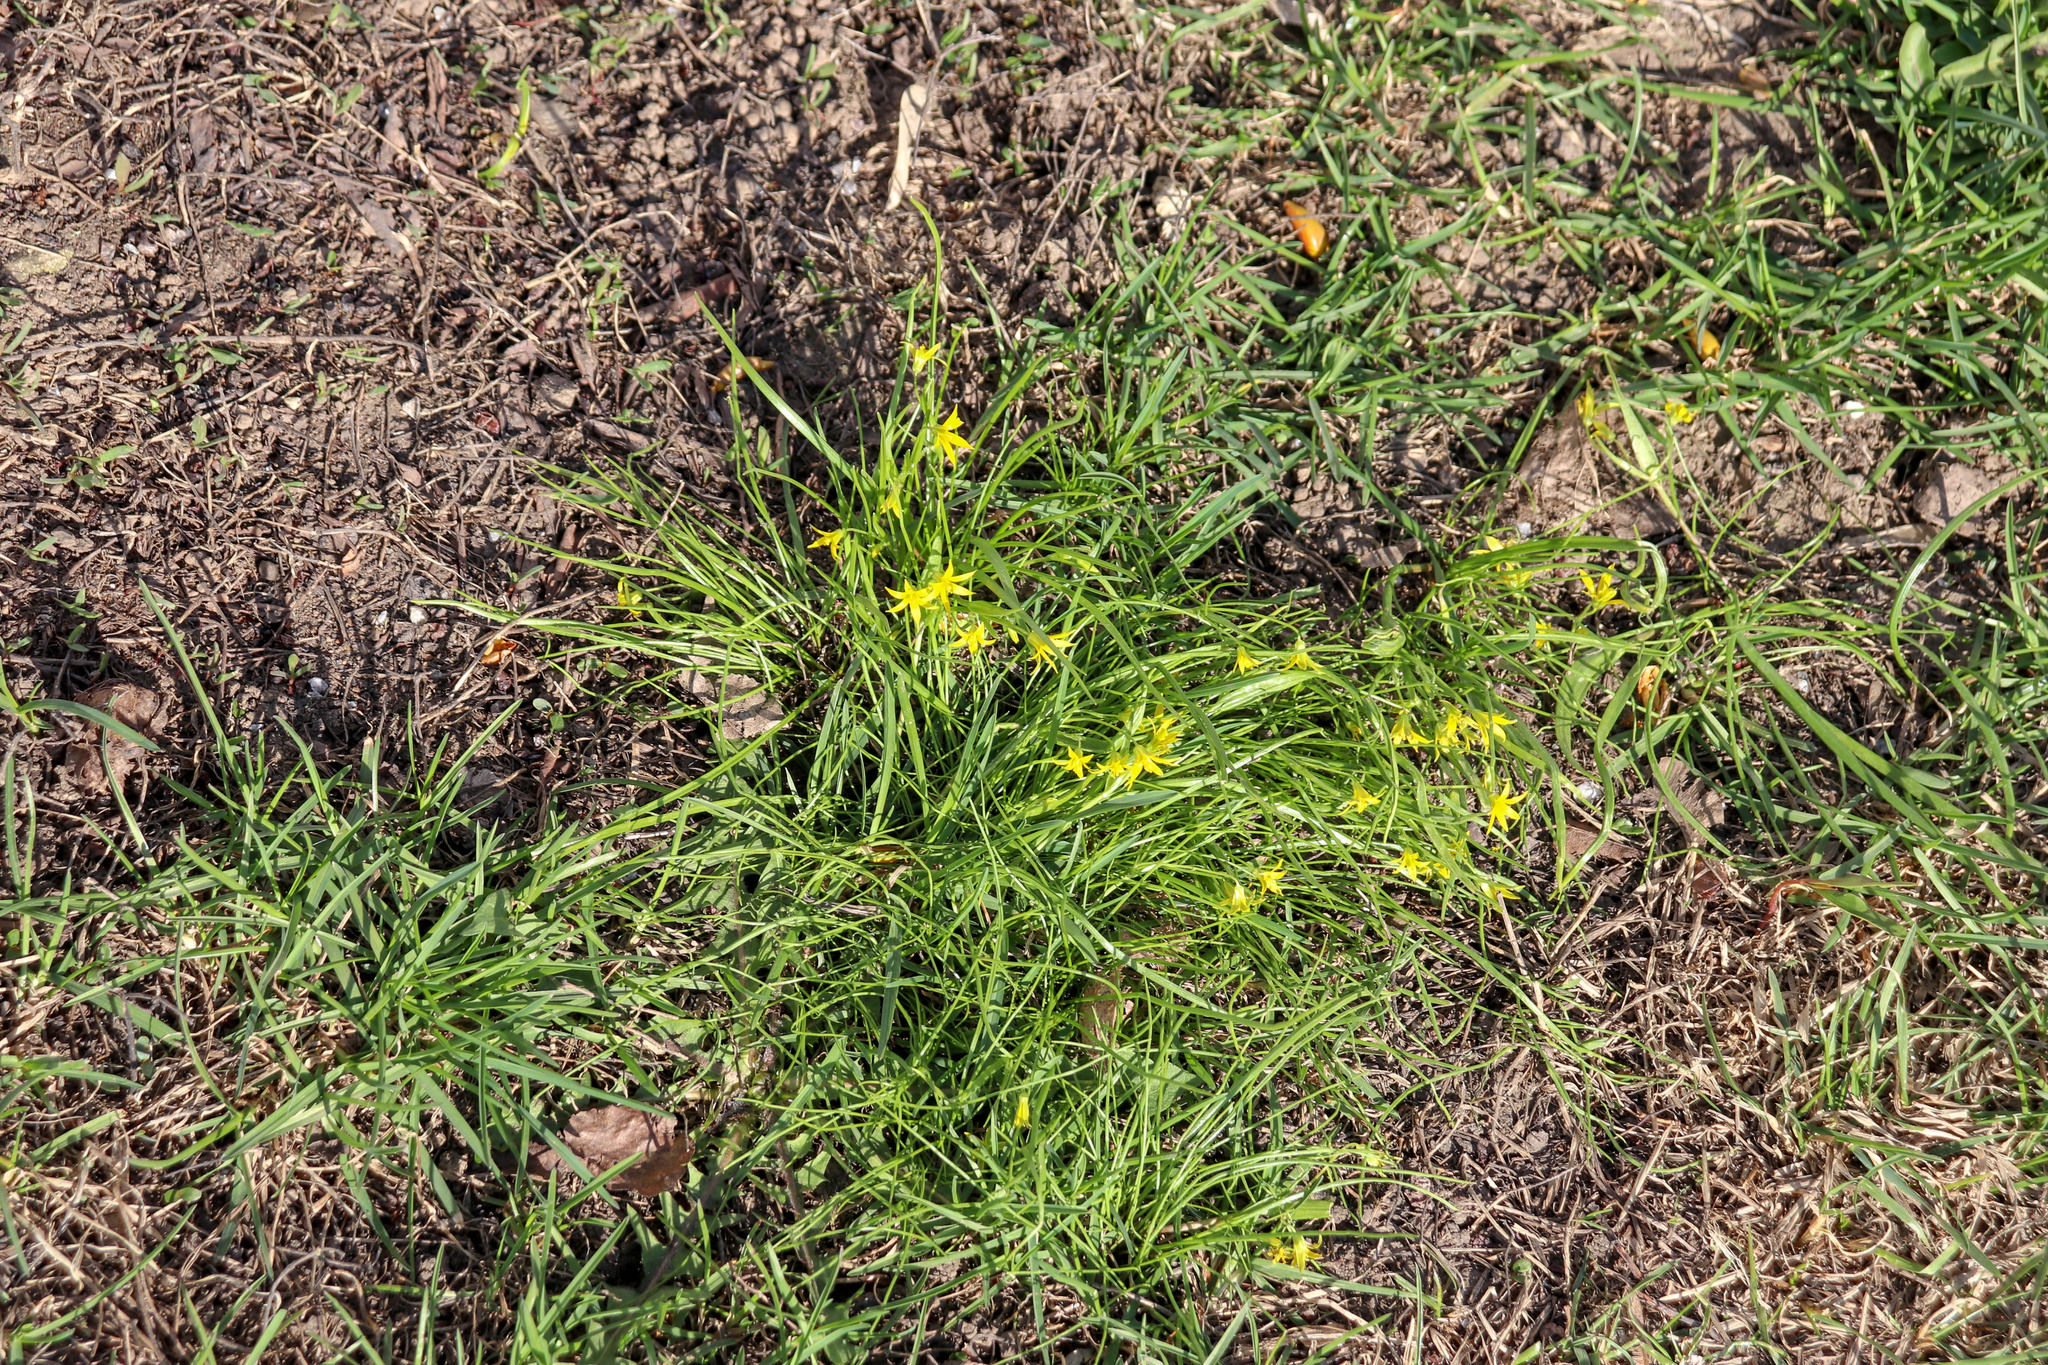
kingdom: Plantae
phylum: Tracheophyta
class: Liliopsida
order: Liliales
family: Liliaceae
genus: Gagea
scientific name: Gagea minima
